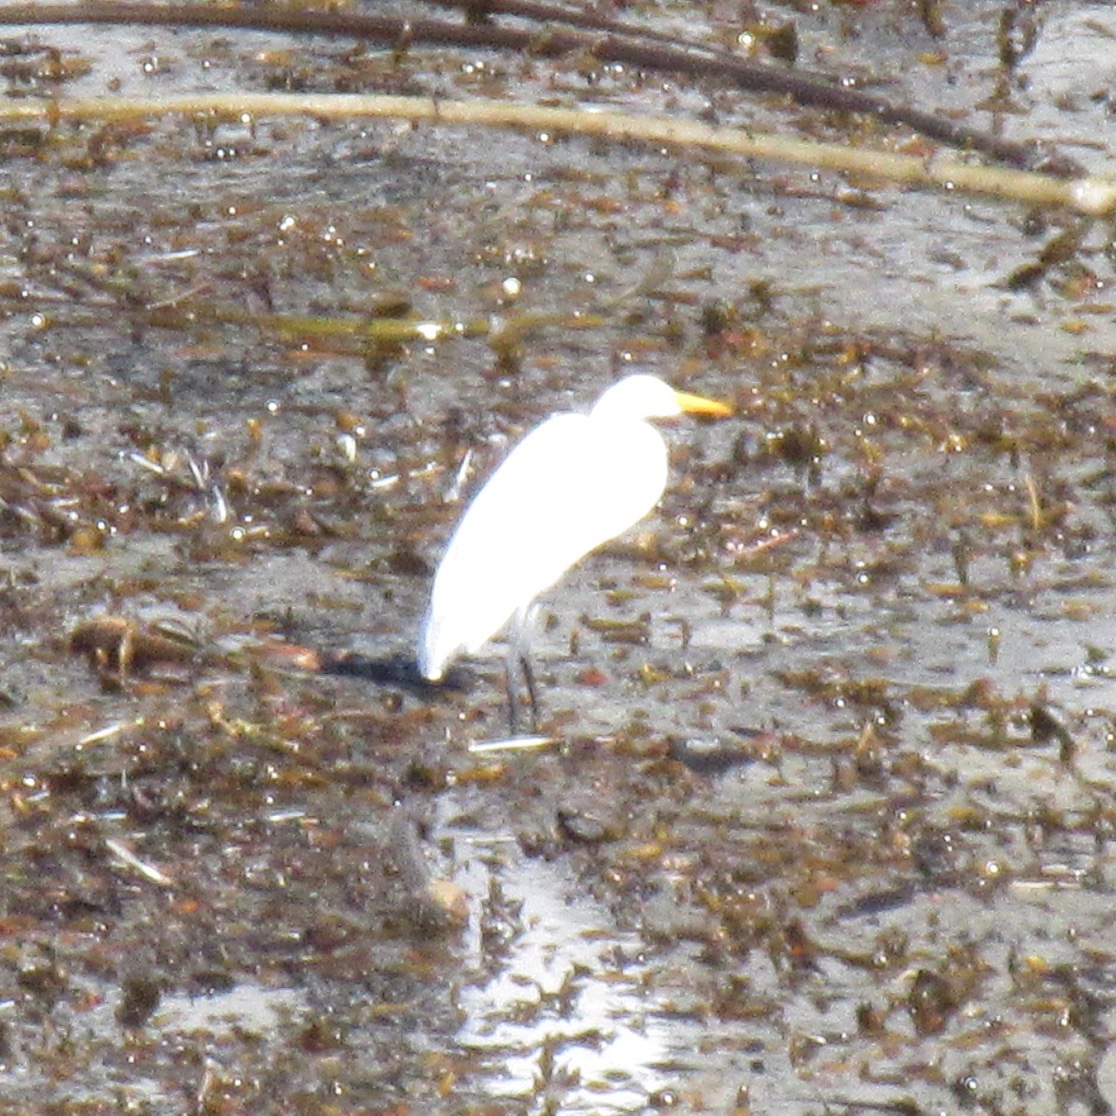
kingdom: Animalia
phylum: Chordata
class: Aves
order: Pelecaniformes
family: Ardeidae
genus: Ardea
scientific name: Ardea alba
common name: Great egret
